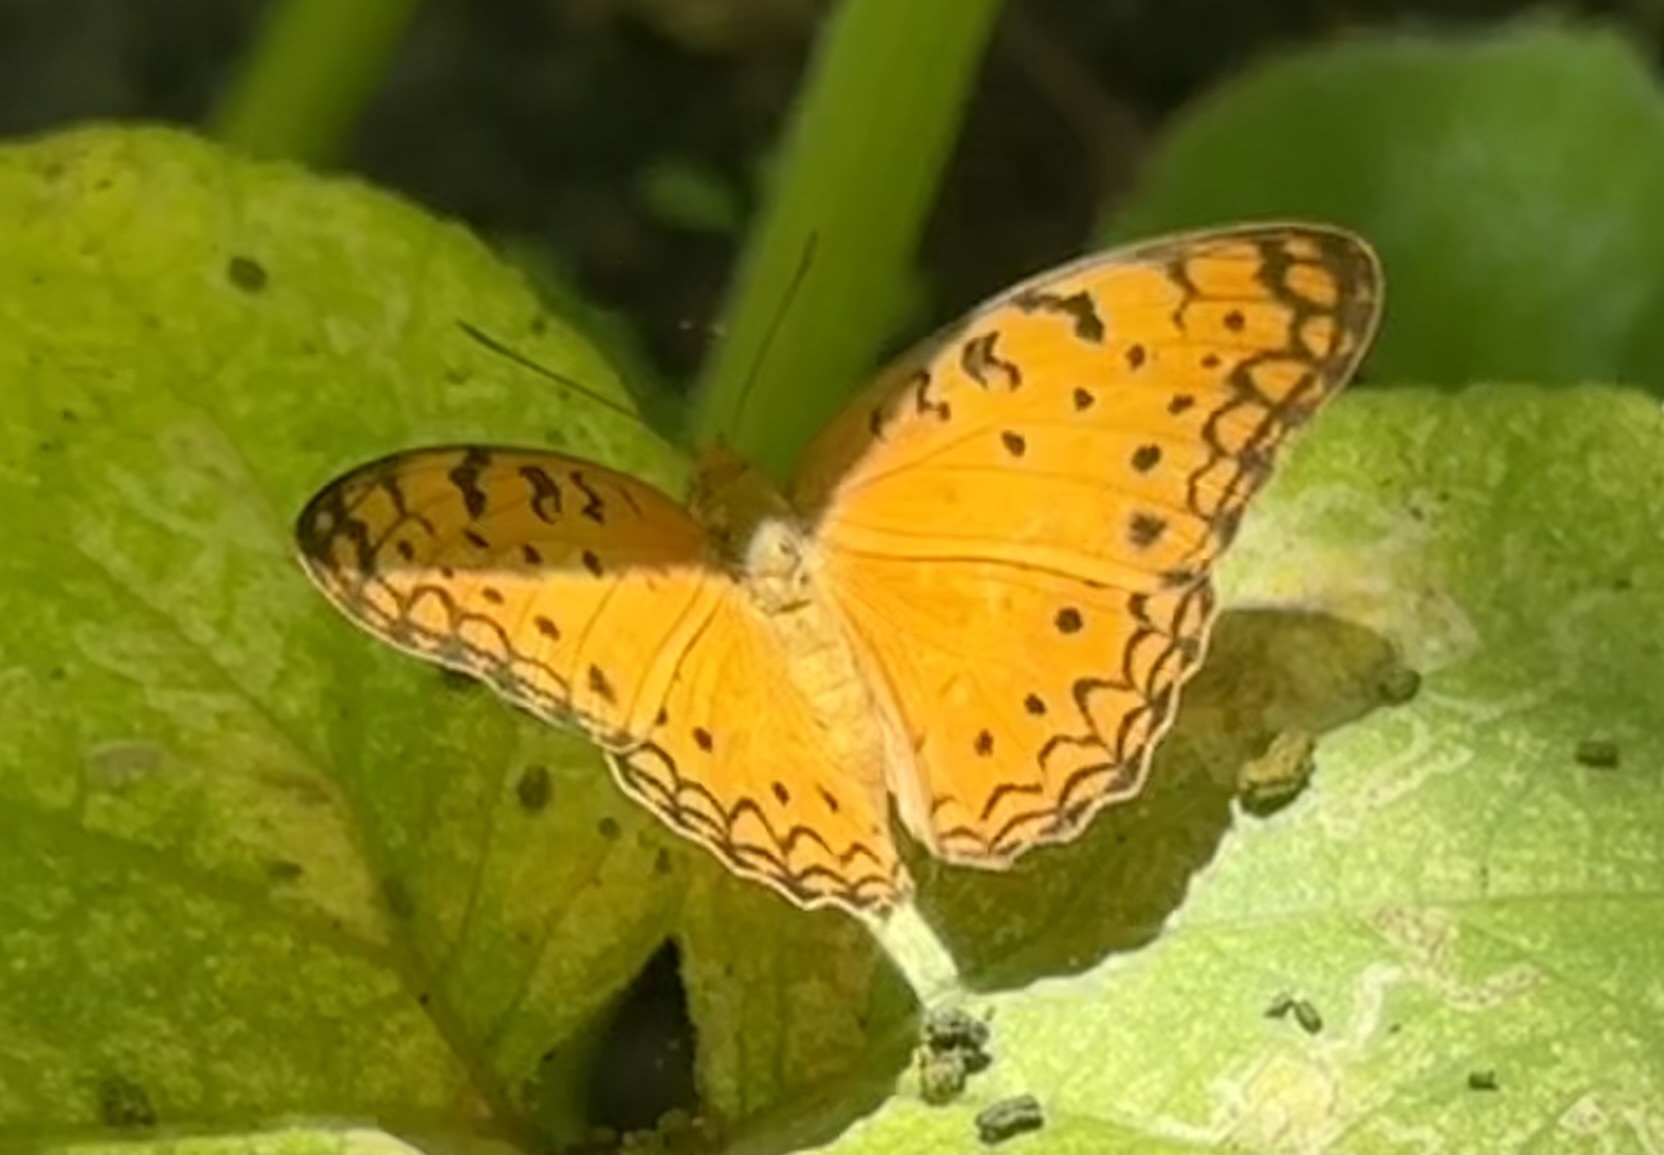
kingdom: Animalia
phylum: Arthropoda
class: Insecta
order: Lepidoptera
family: Nymphalidae
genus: Phalanta
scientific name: Phalanta phalantha
